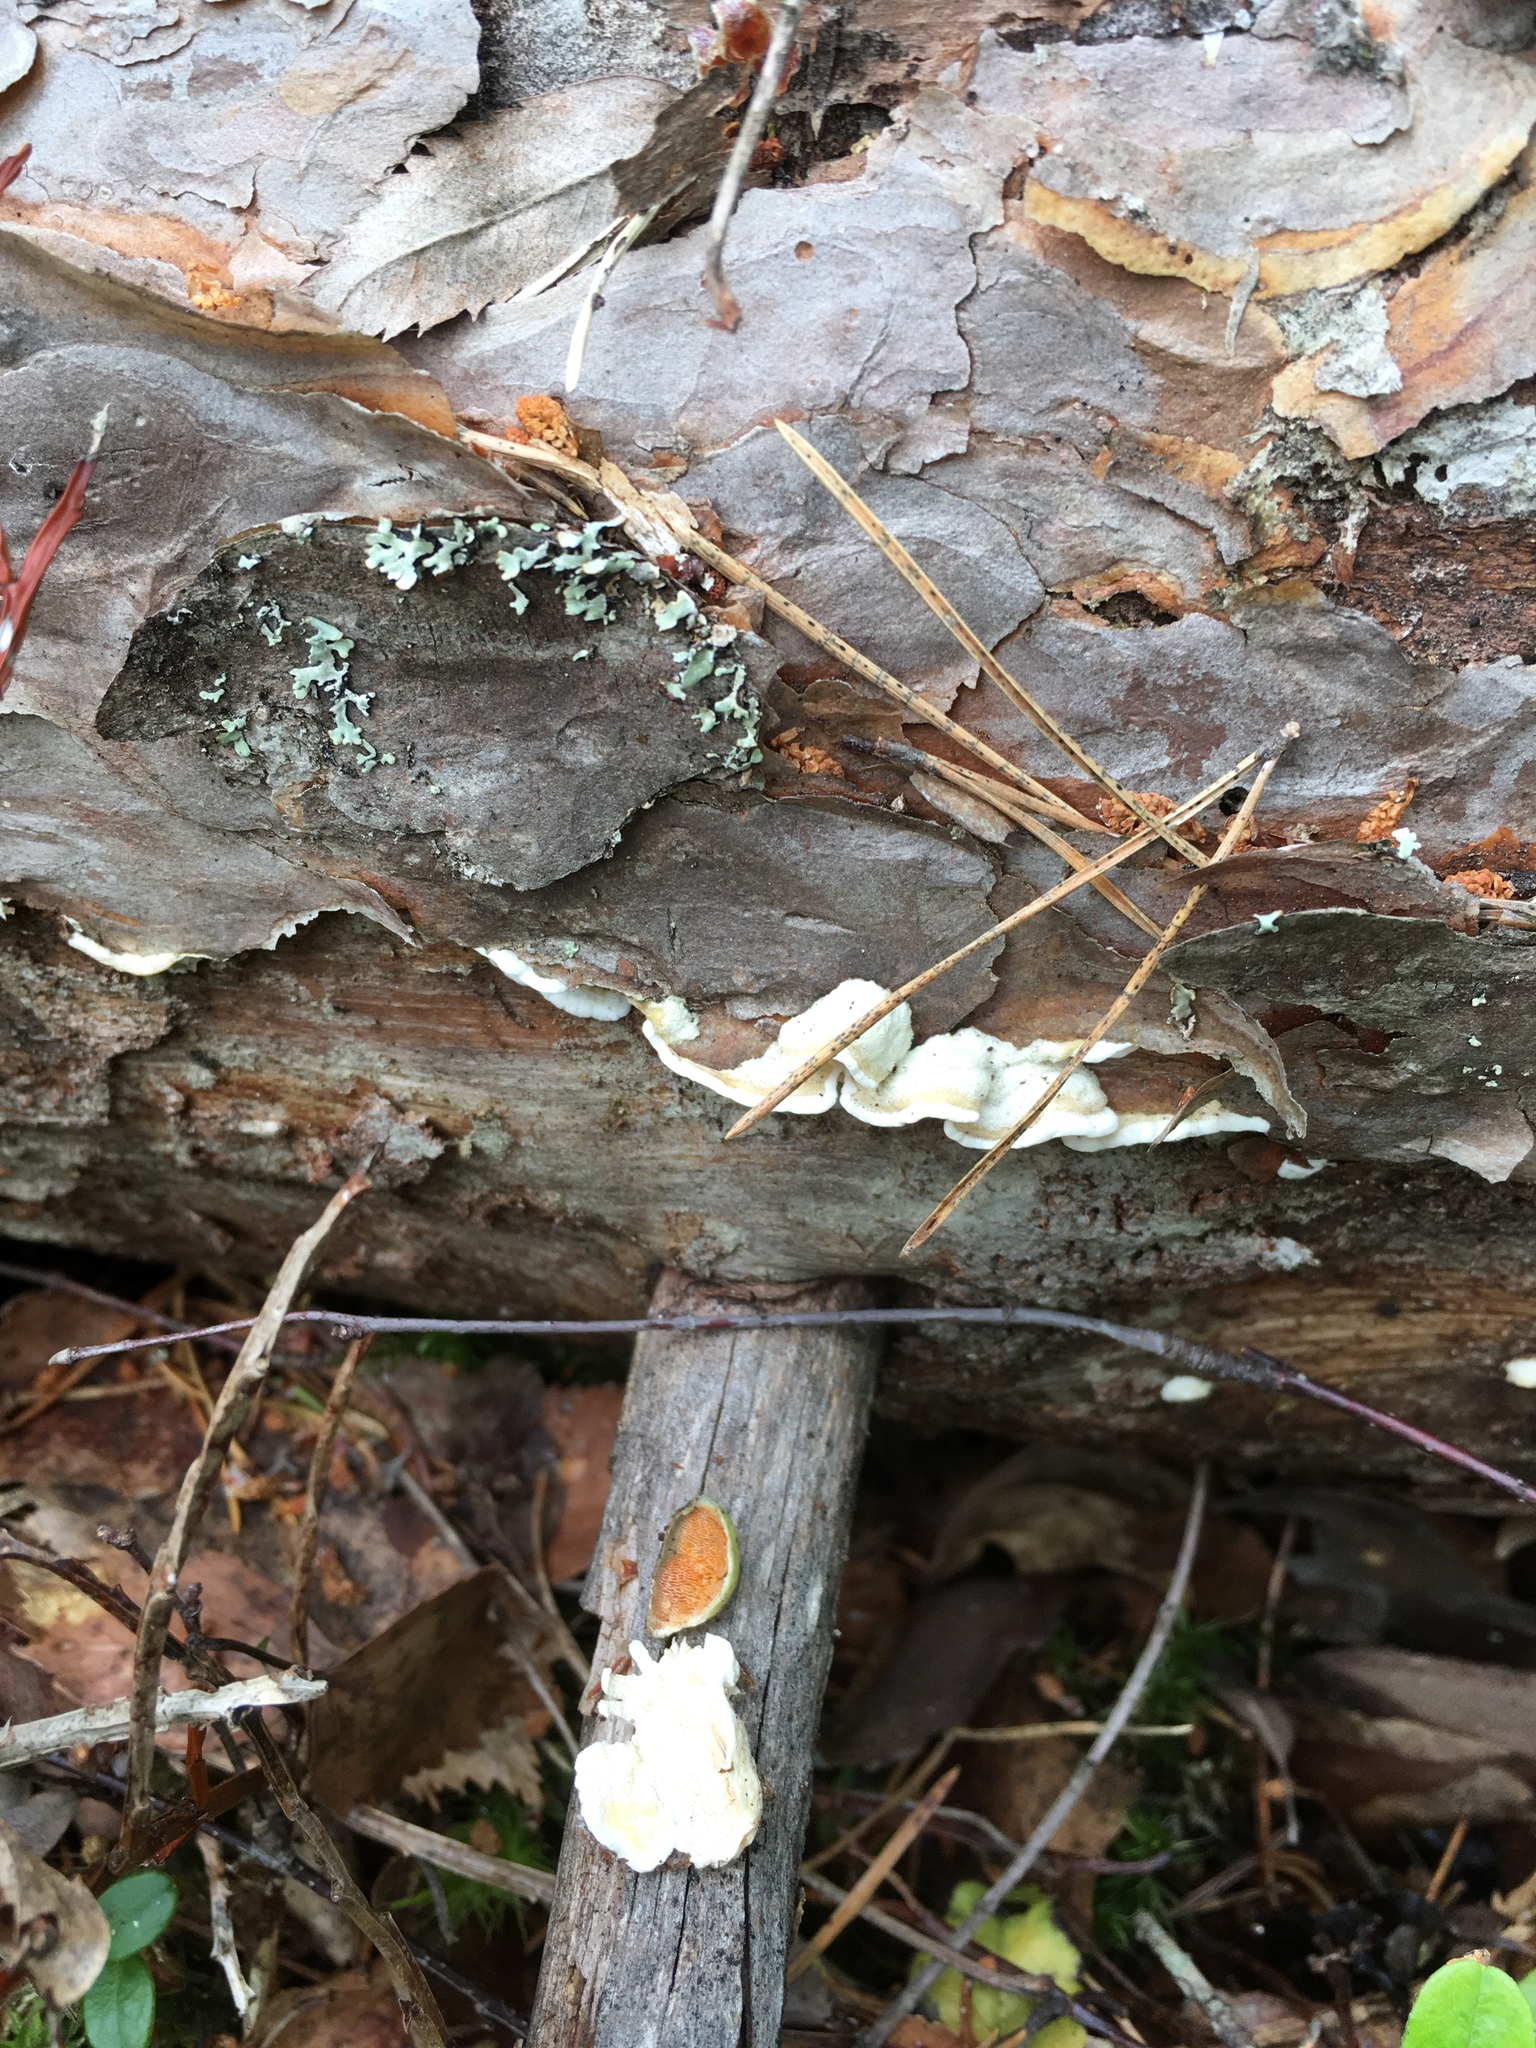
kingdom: Fungi
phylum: Basidiomycota
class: Agaricomycetes
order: Polyporales
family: Incrustoporiaceae
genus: Skeletocutis
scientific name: Skeletocutis amorpha
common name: Rusty crust
